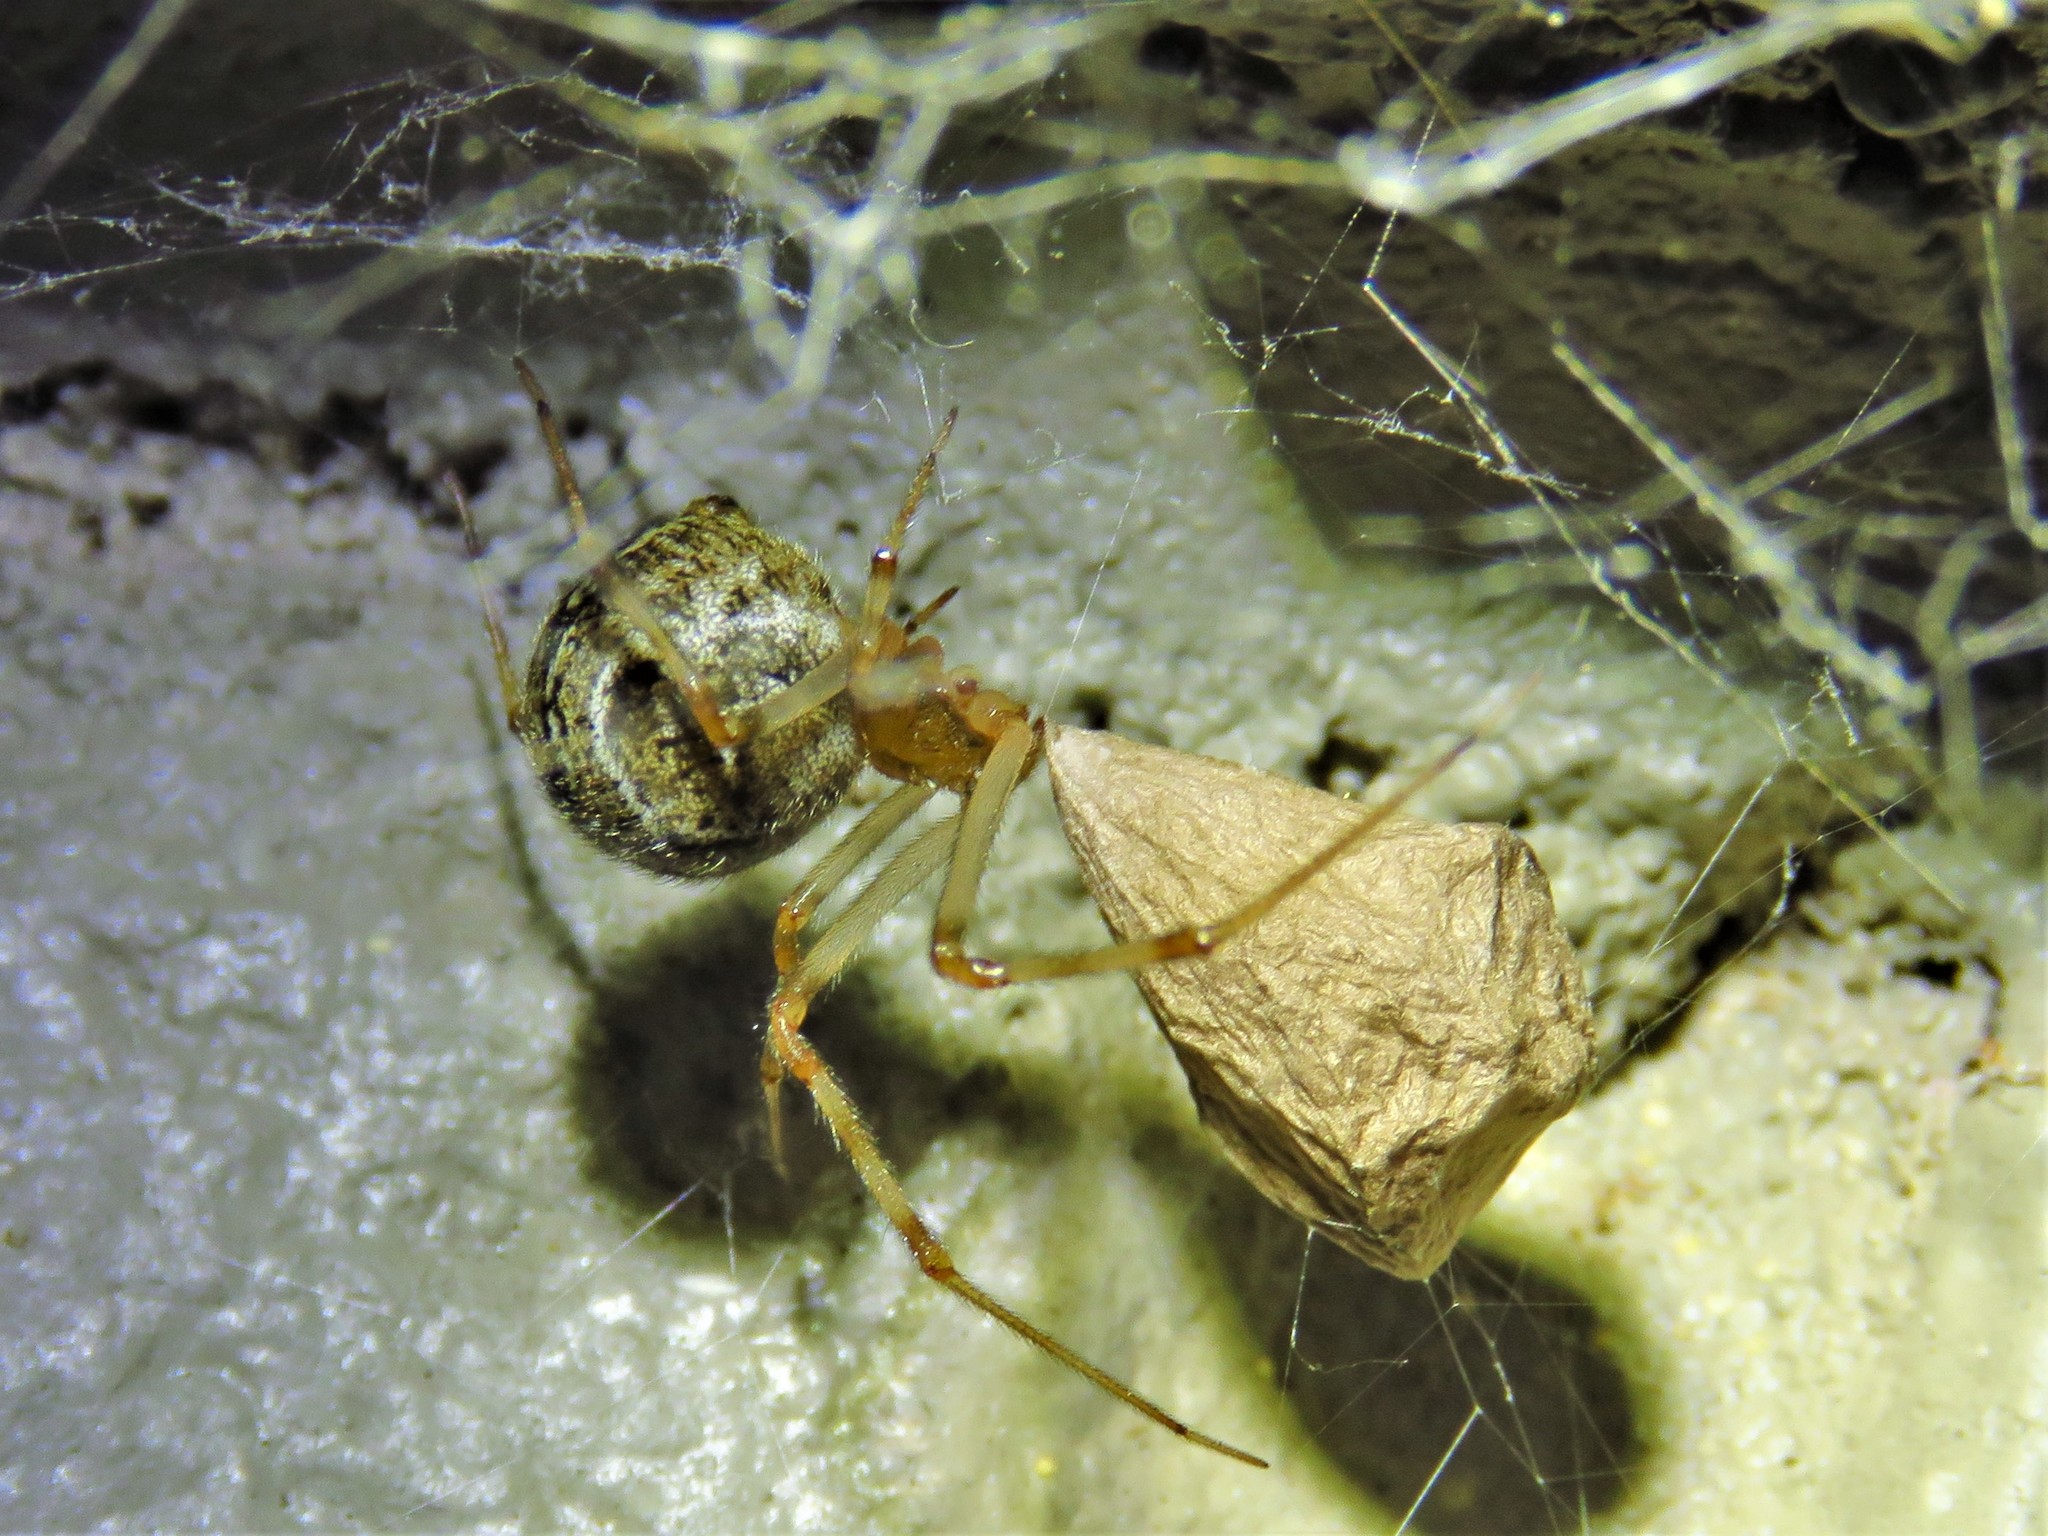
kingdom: Animalia
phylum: Arthropoda
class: Arachnida
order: Araneae
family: Theridiidae
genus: Parasteatoda
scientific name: Parasteatoda tepidariorum
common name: Common house spider
